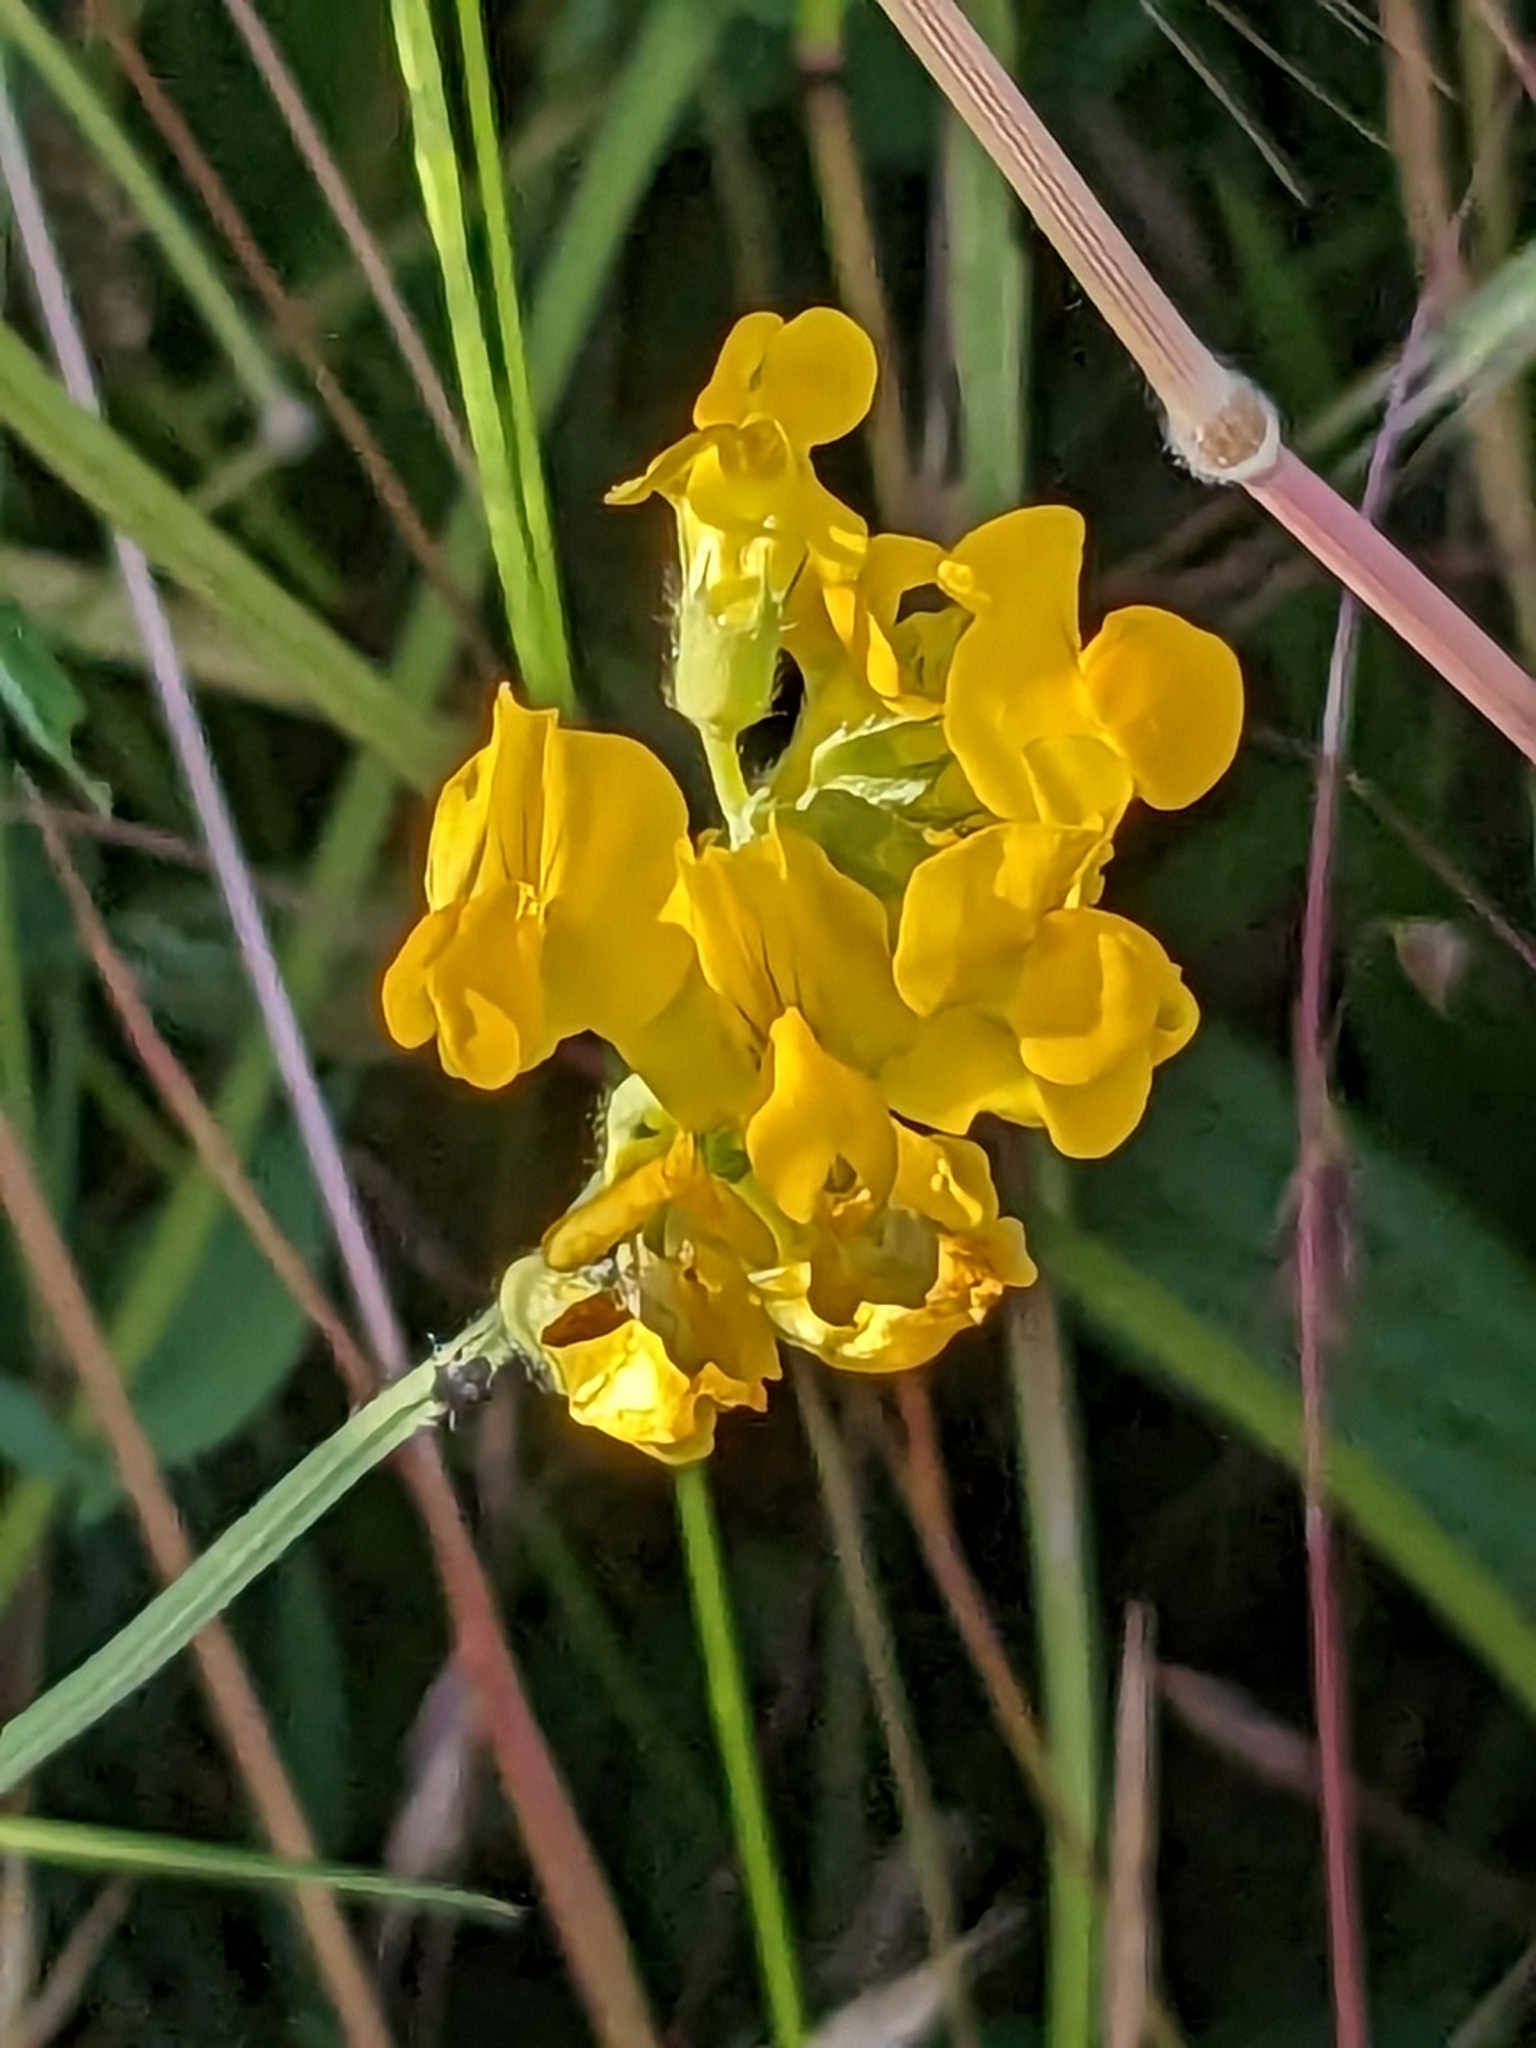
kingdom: Plantae
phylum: Tracheophyta
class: Magnoliopsida
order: Fabales
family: Fabaceae
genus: Lathyrus
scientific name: Lathyrus pratensis
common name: Meadow vetchling
